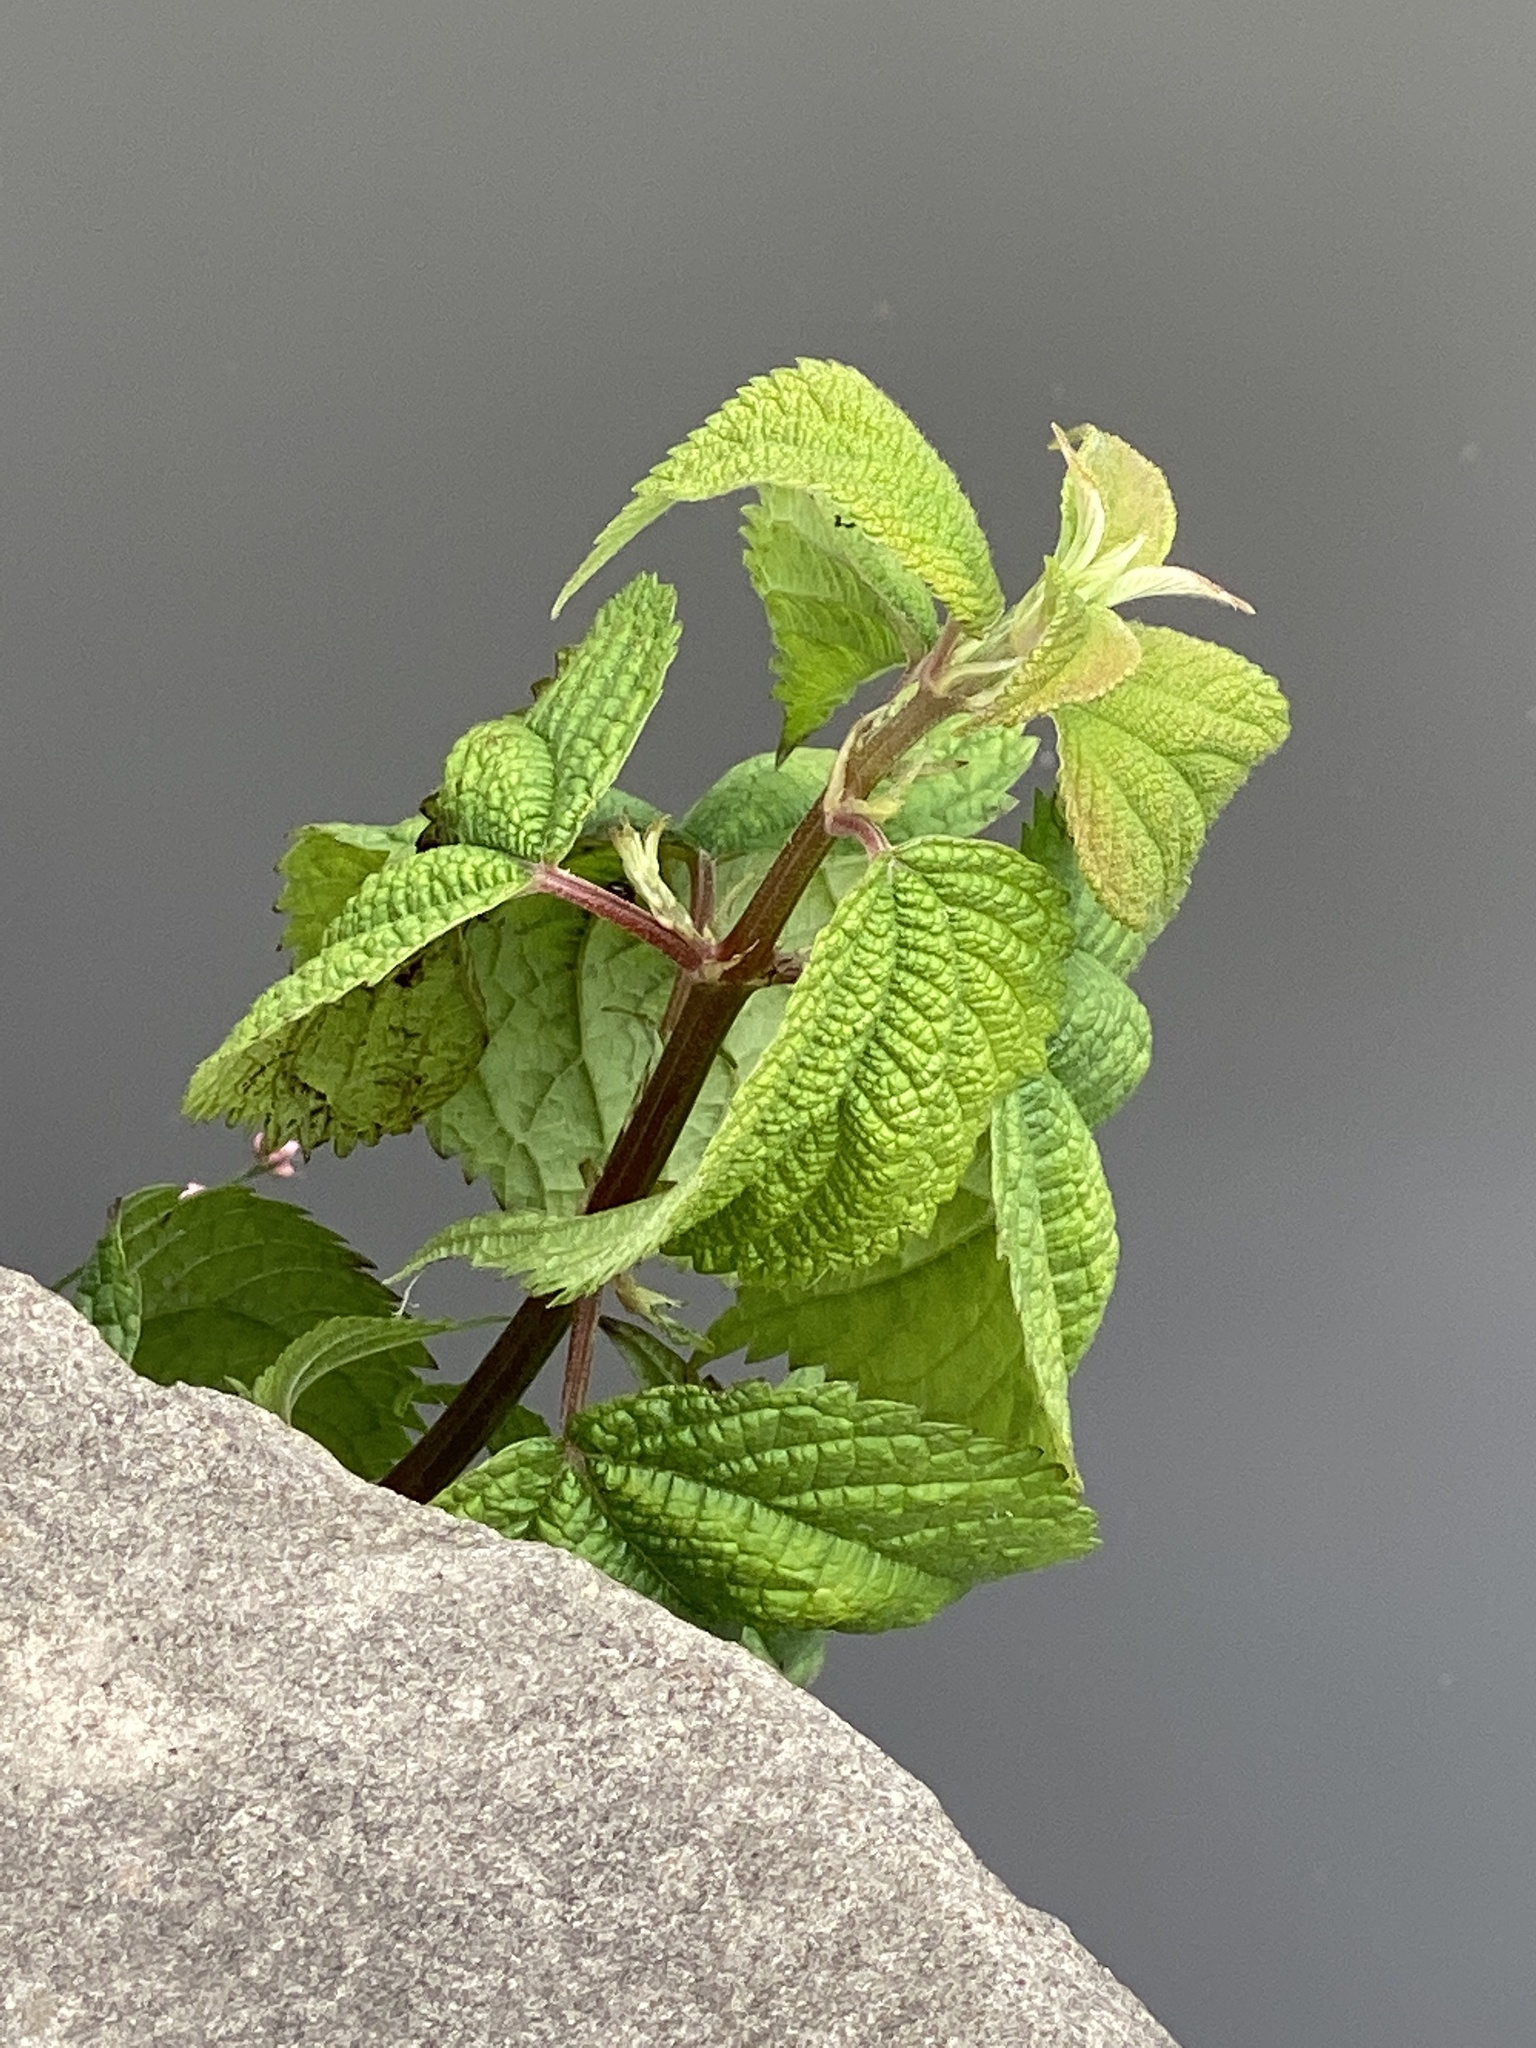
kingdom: Plantae
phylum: Tracheophyta
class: Magnoliopsida
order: Rosales
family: Urticaceae
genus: Boehmeria
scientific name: Boehmeria cylindrica
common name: Bog-hemp
